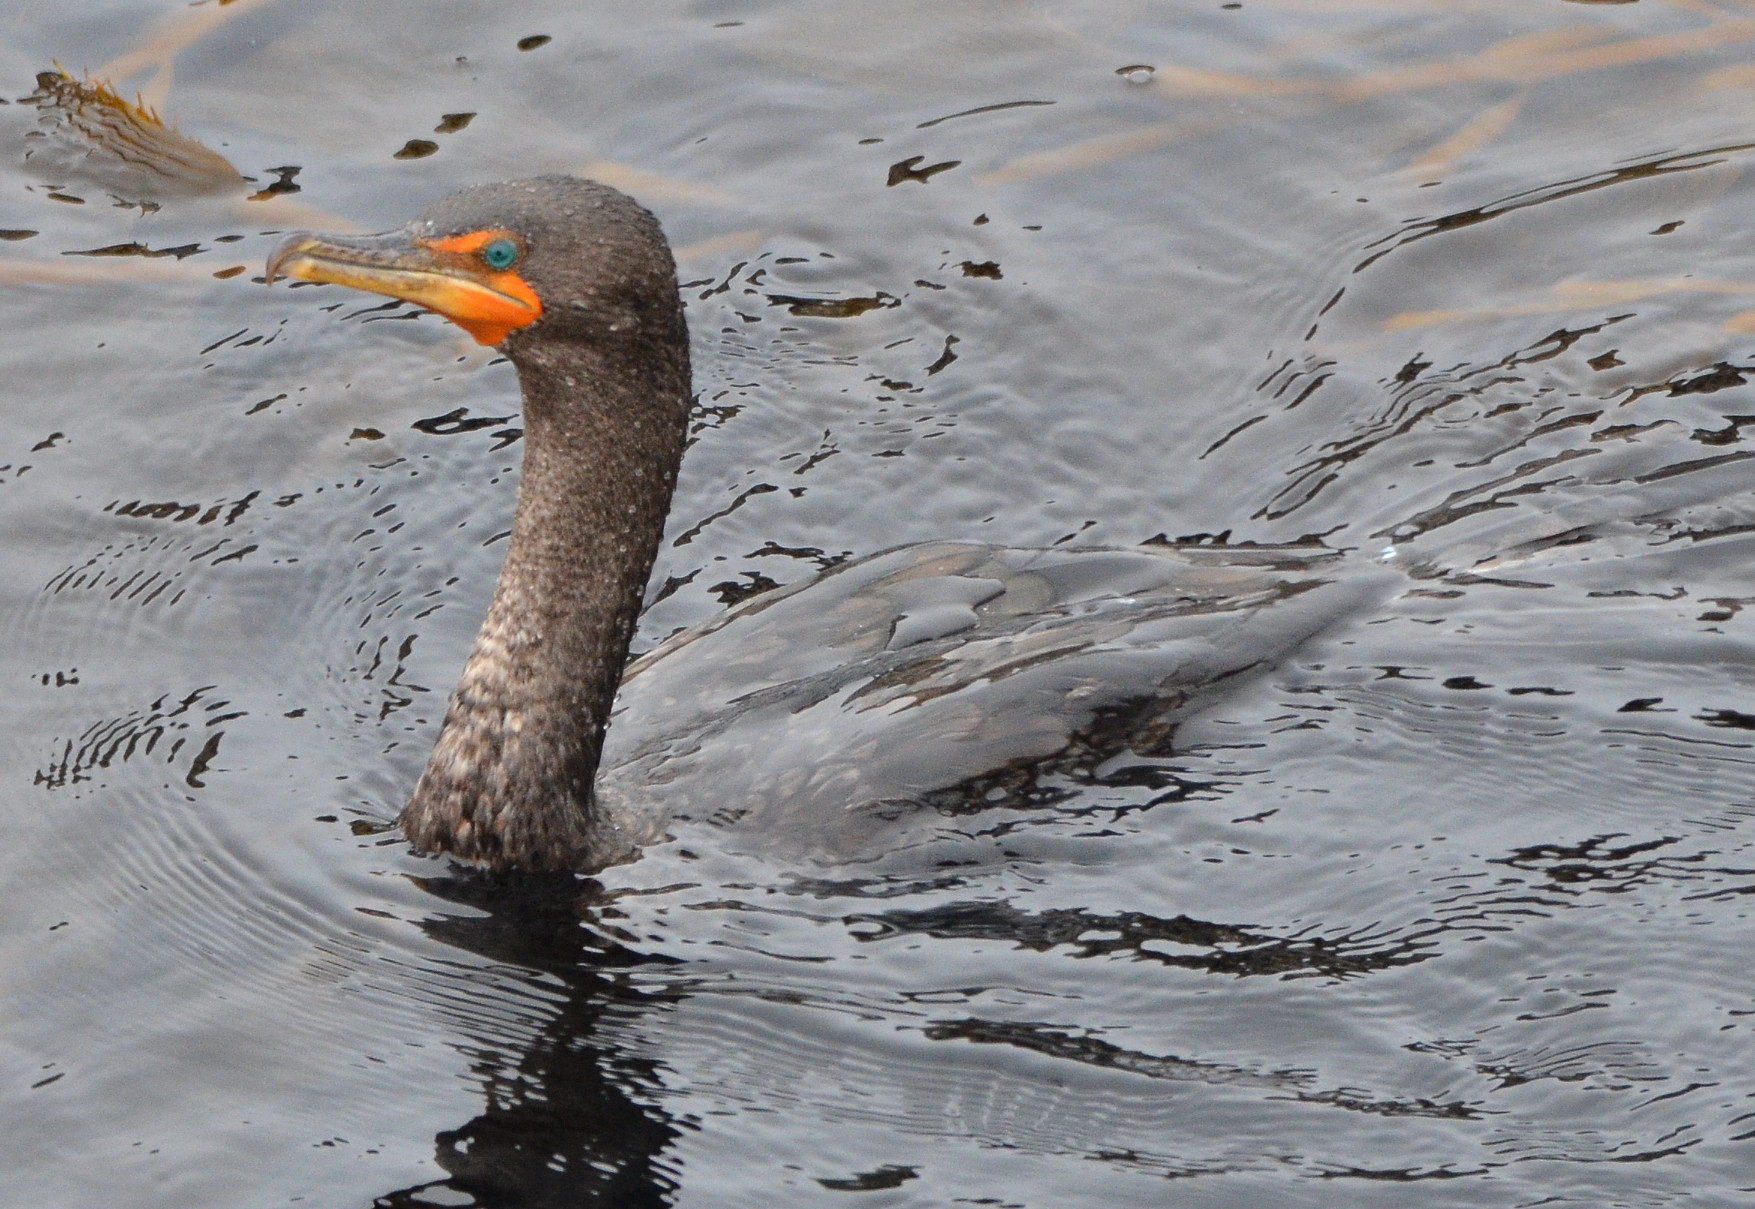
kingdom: Animalia
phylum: Chordata
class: Aves
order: Suliformes
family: Phalacrocoracidae
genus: Phalacrocorax
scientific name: Phalacrocorax auritus
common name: Double-crested cormorant
